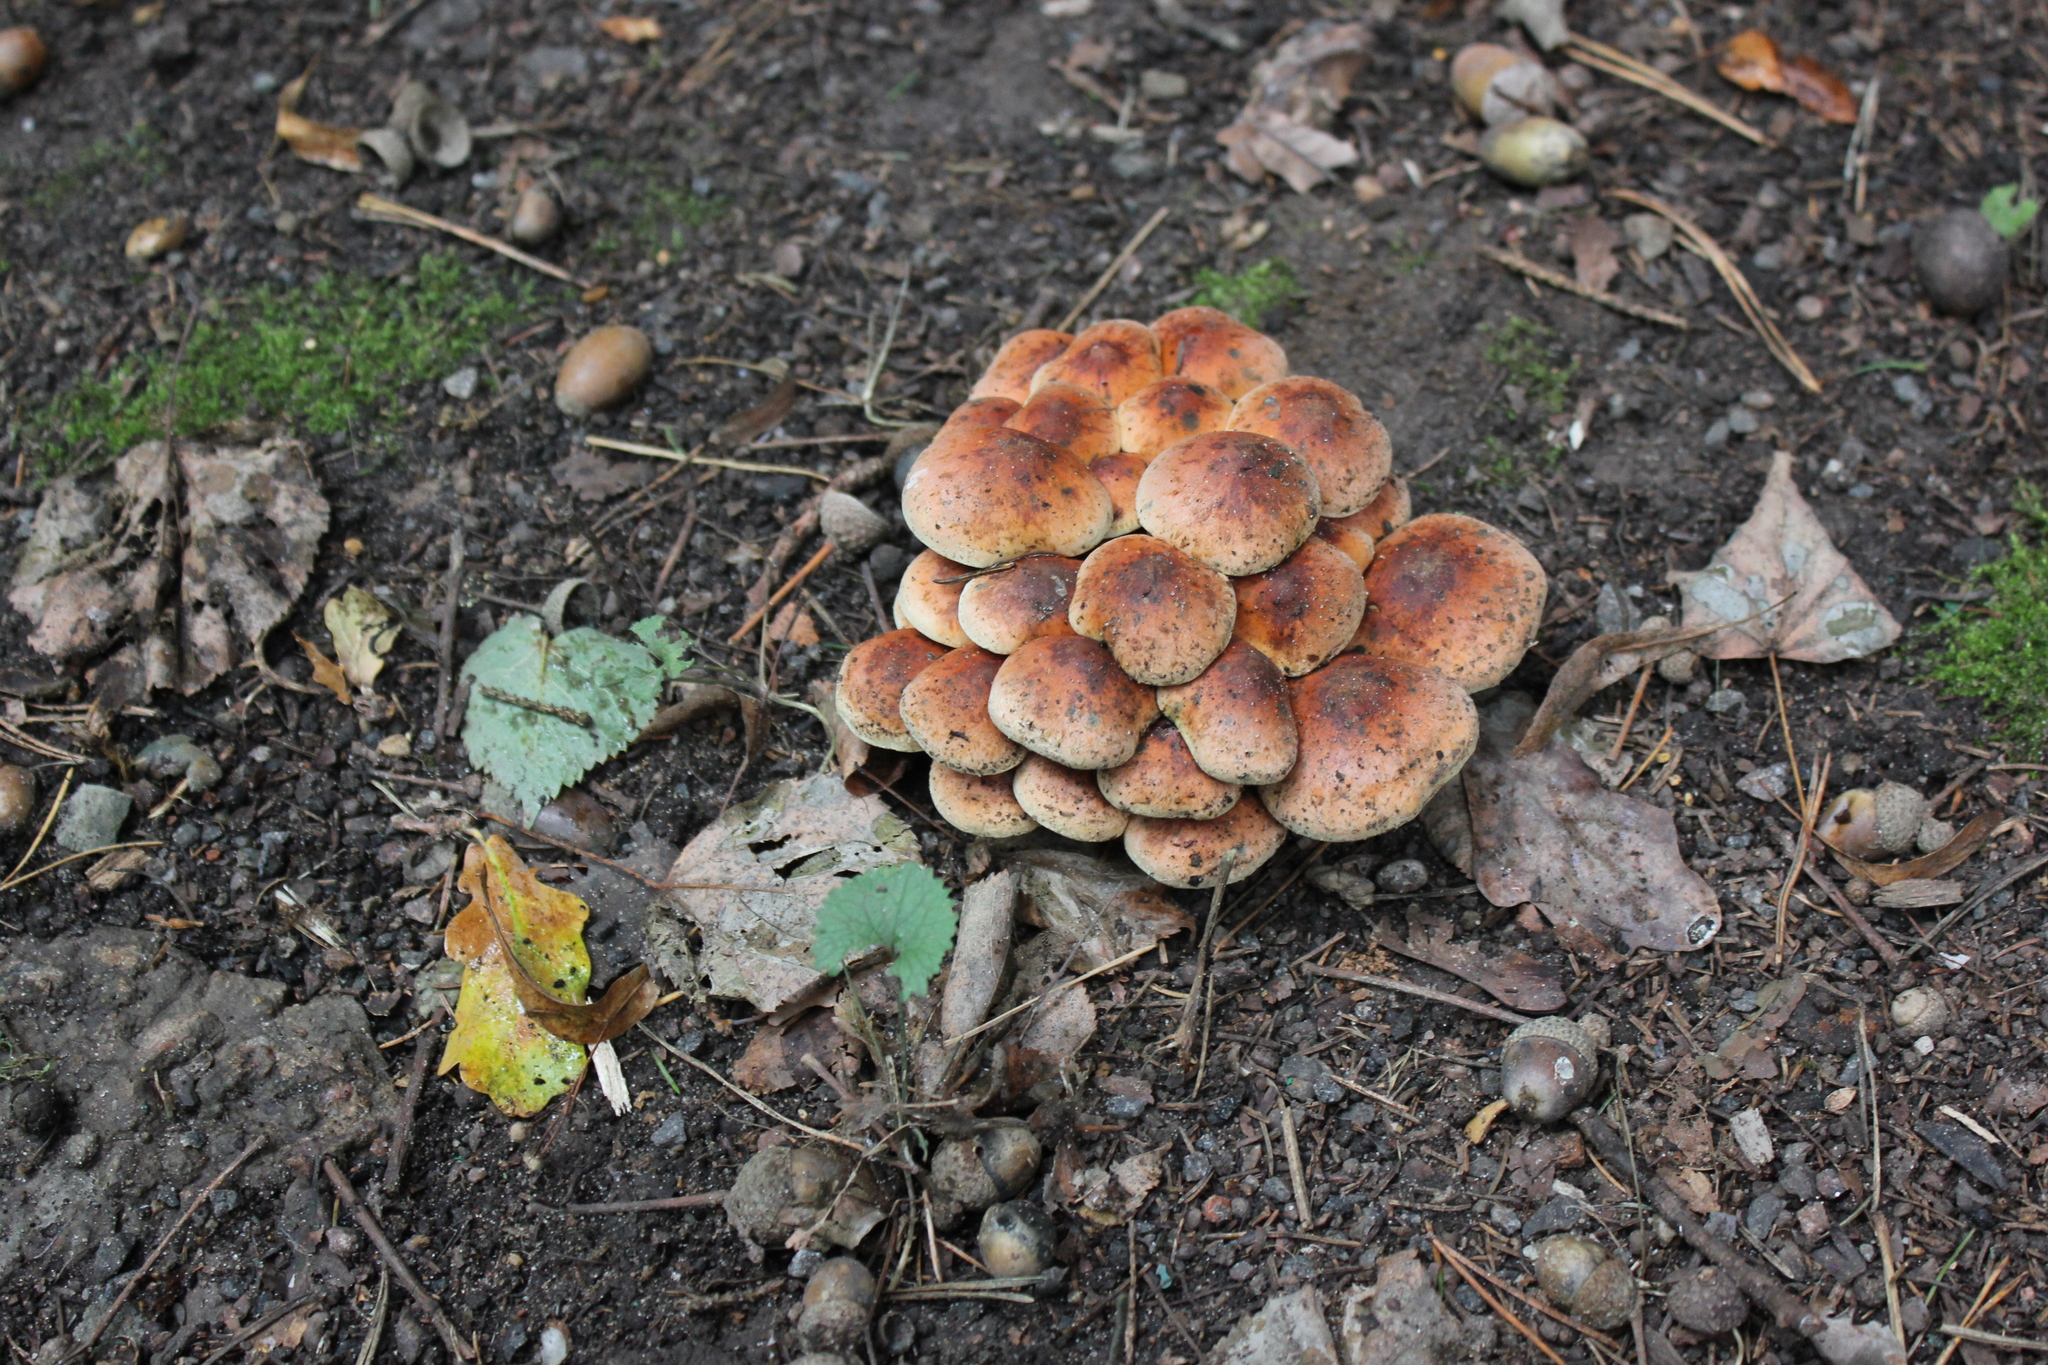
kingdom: Fungi
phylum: Basidiomycota
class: Agaricomycetes
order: Agaricales
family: Strophariaceae
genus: Hypholoma
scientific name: Hypholoma lateritium
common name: Brick caps
